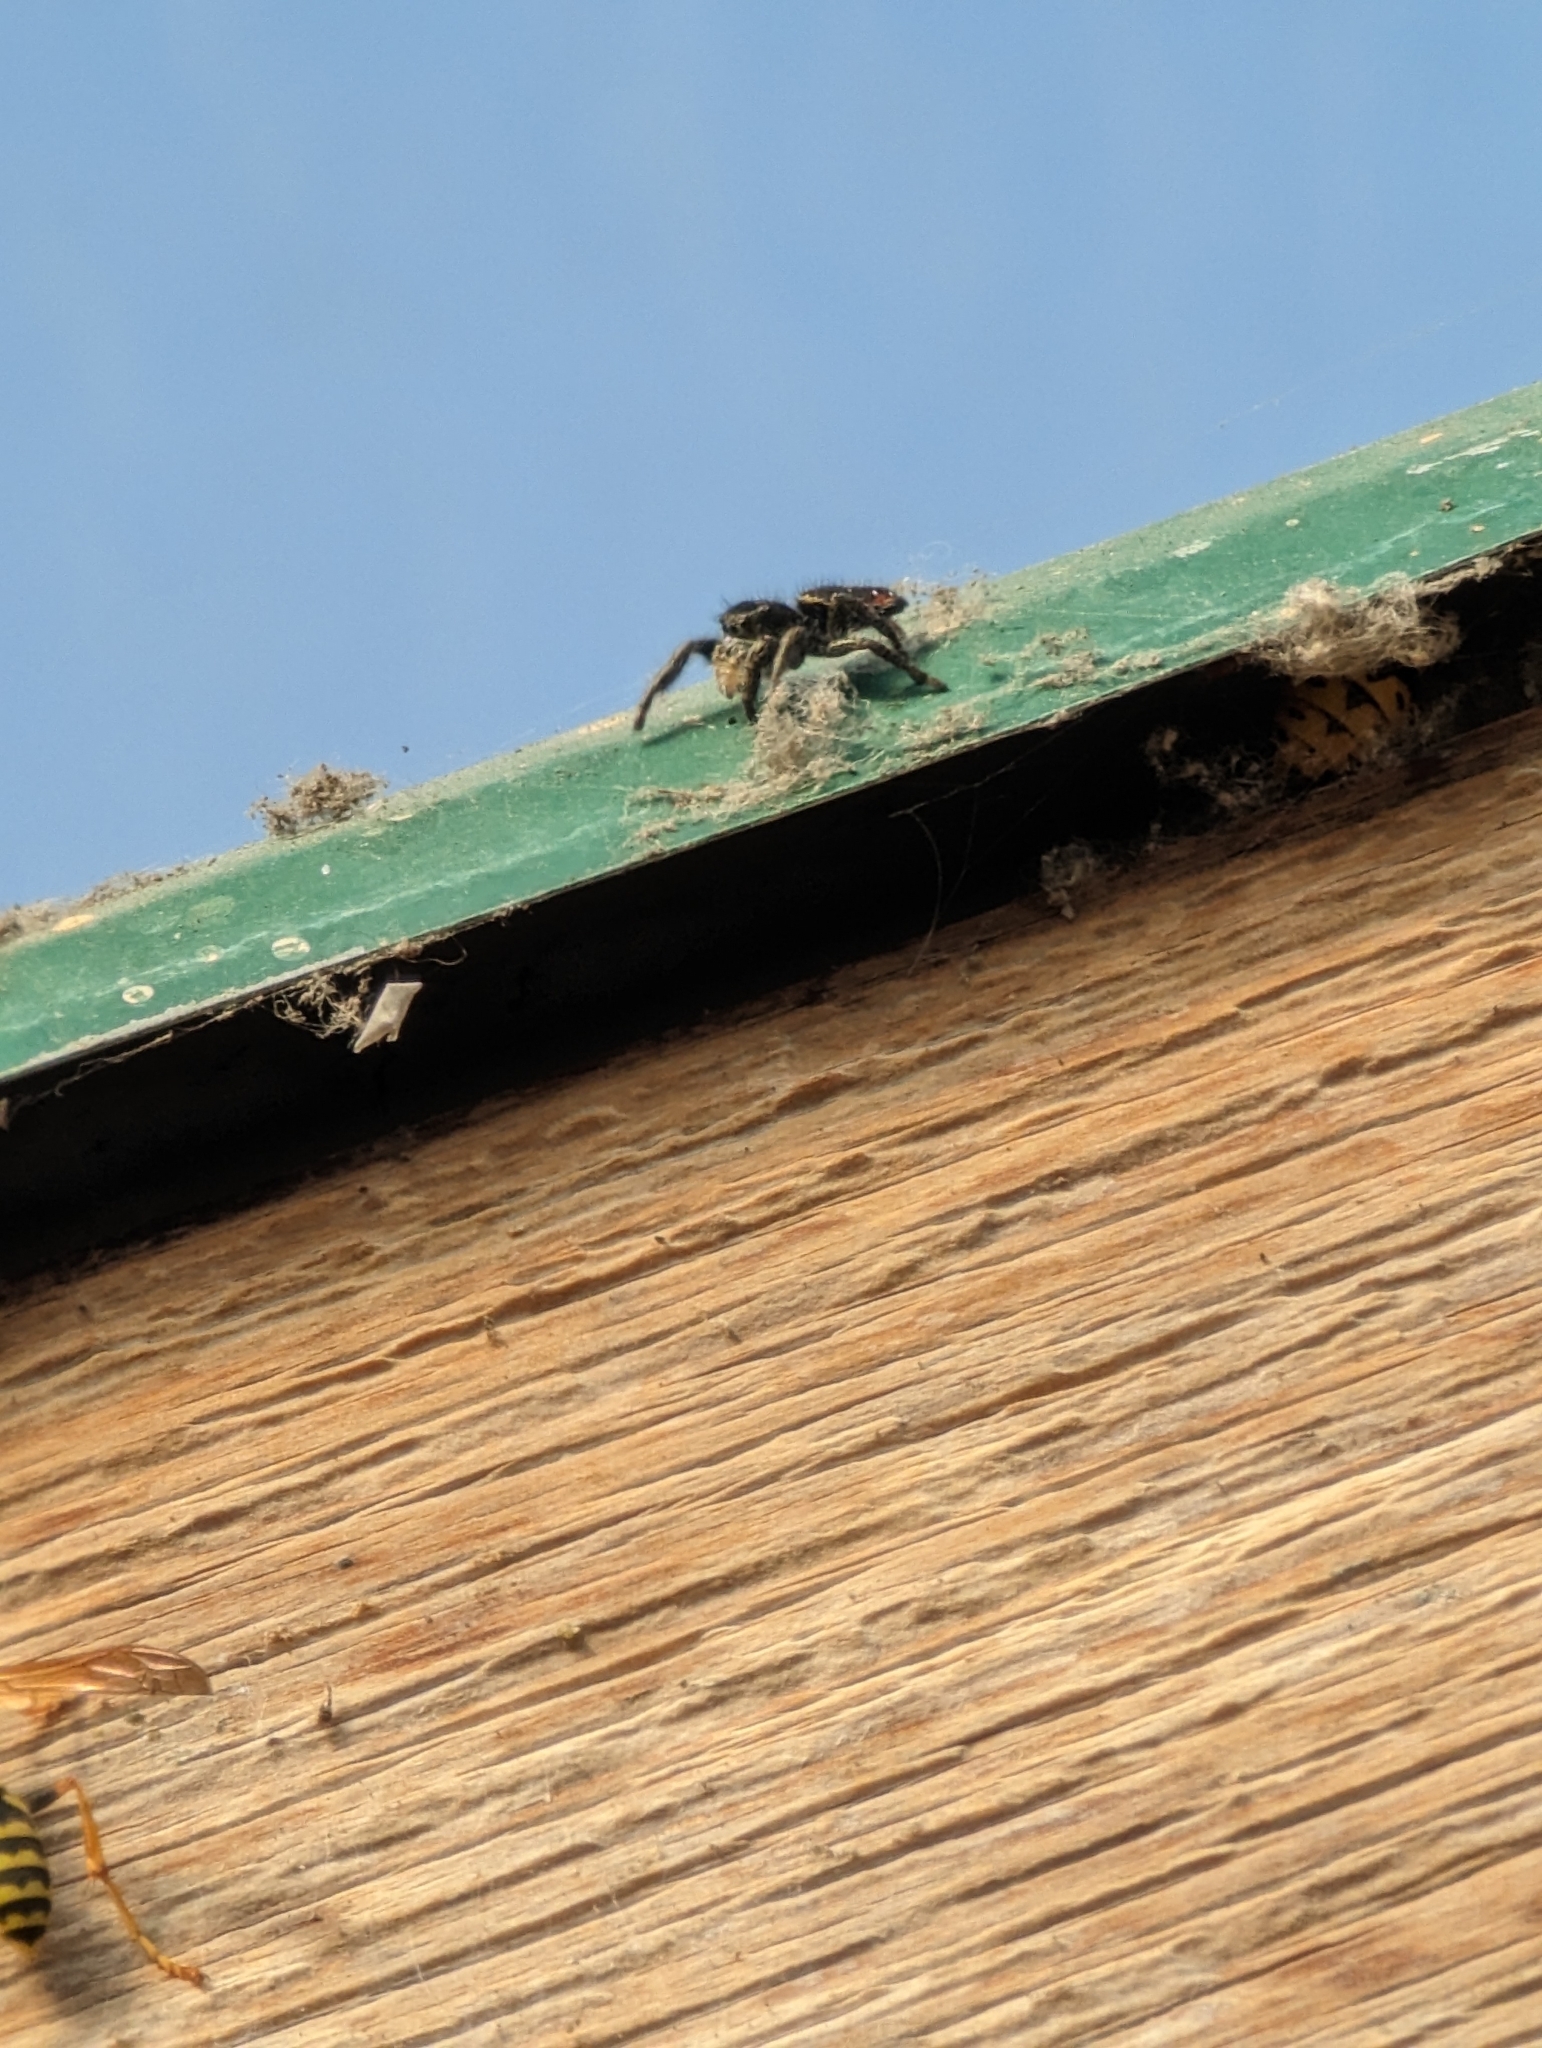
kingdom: Animalia
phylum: Arthropoda
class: Arachnida
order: Araneae
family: Salticidae
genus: Phidippus
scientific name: Phidippus johnsoni
